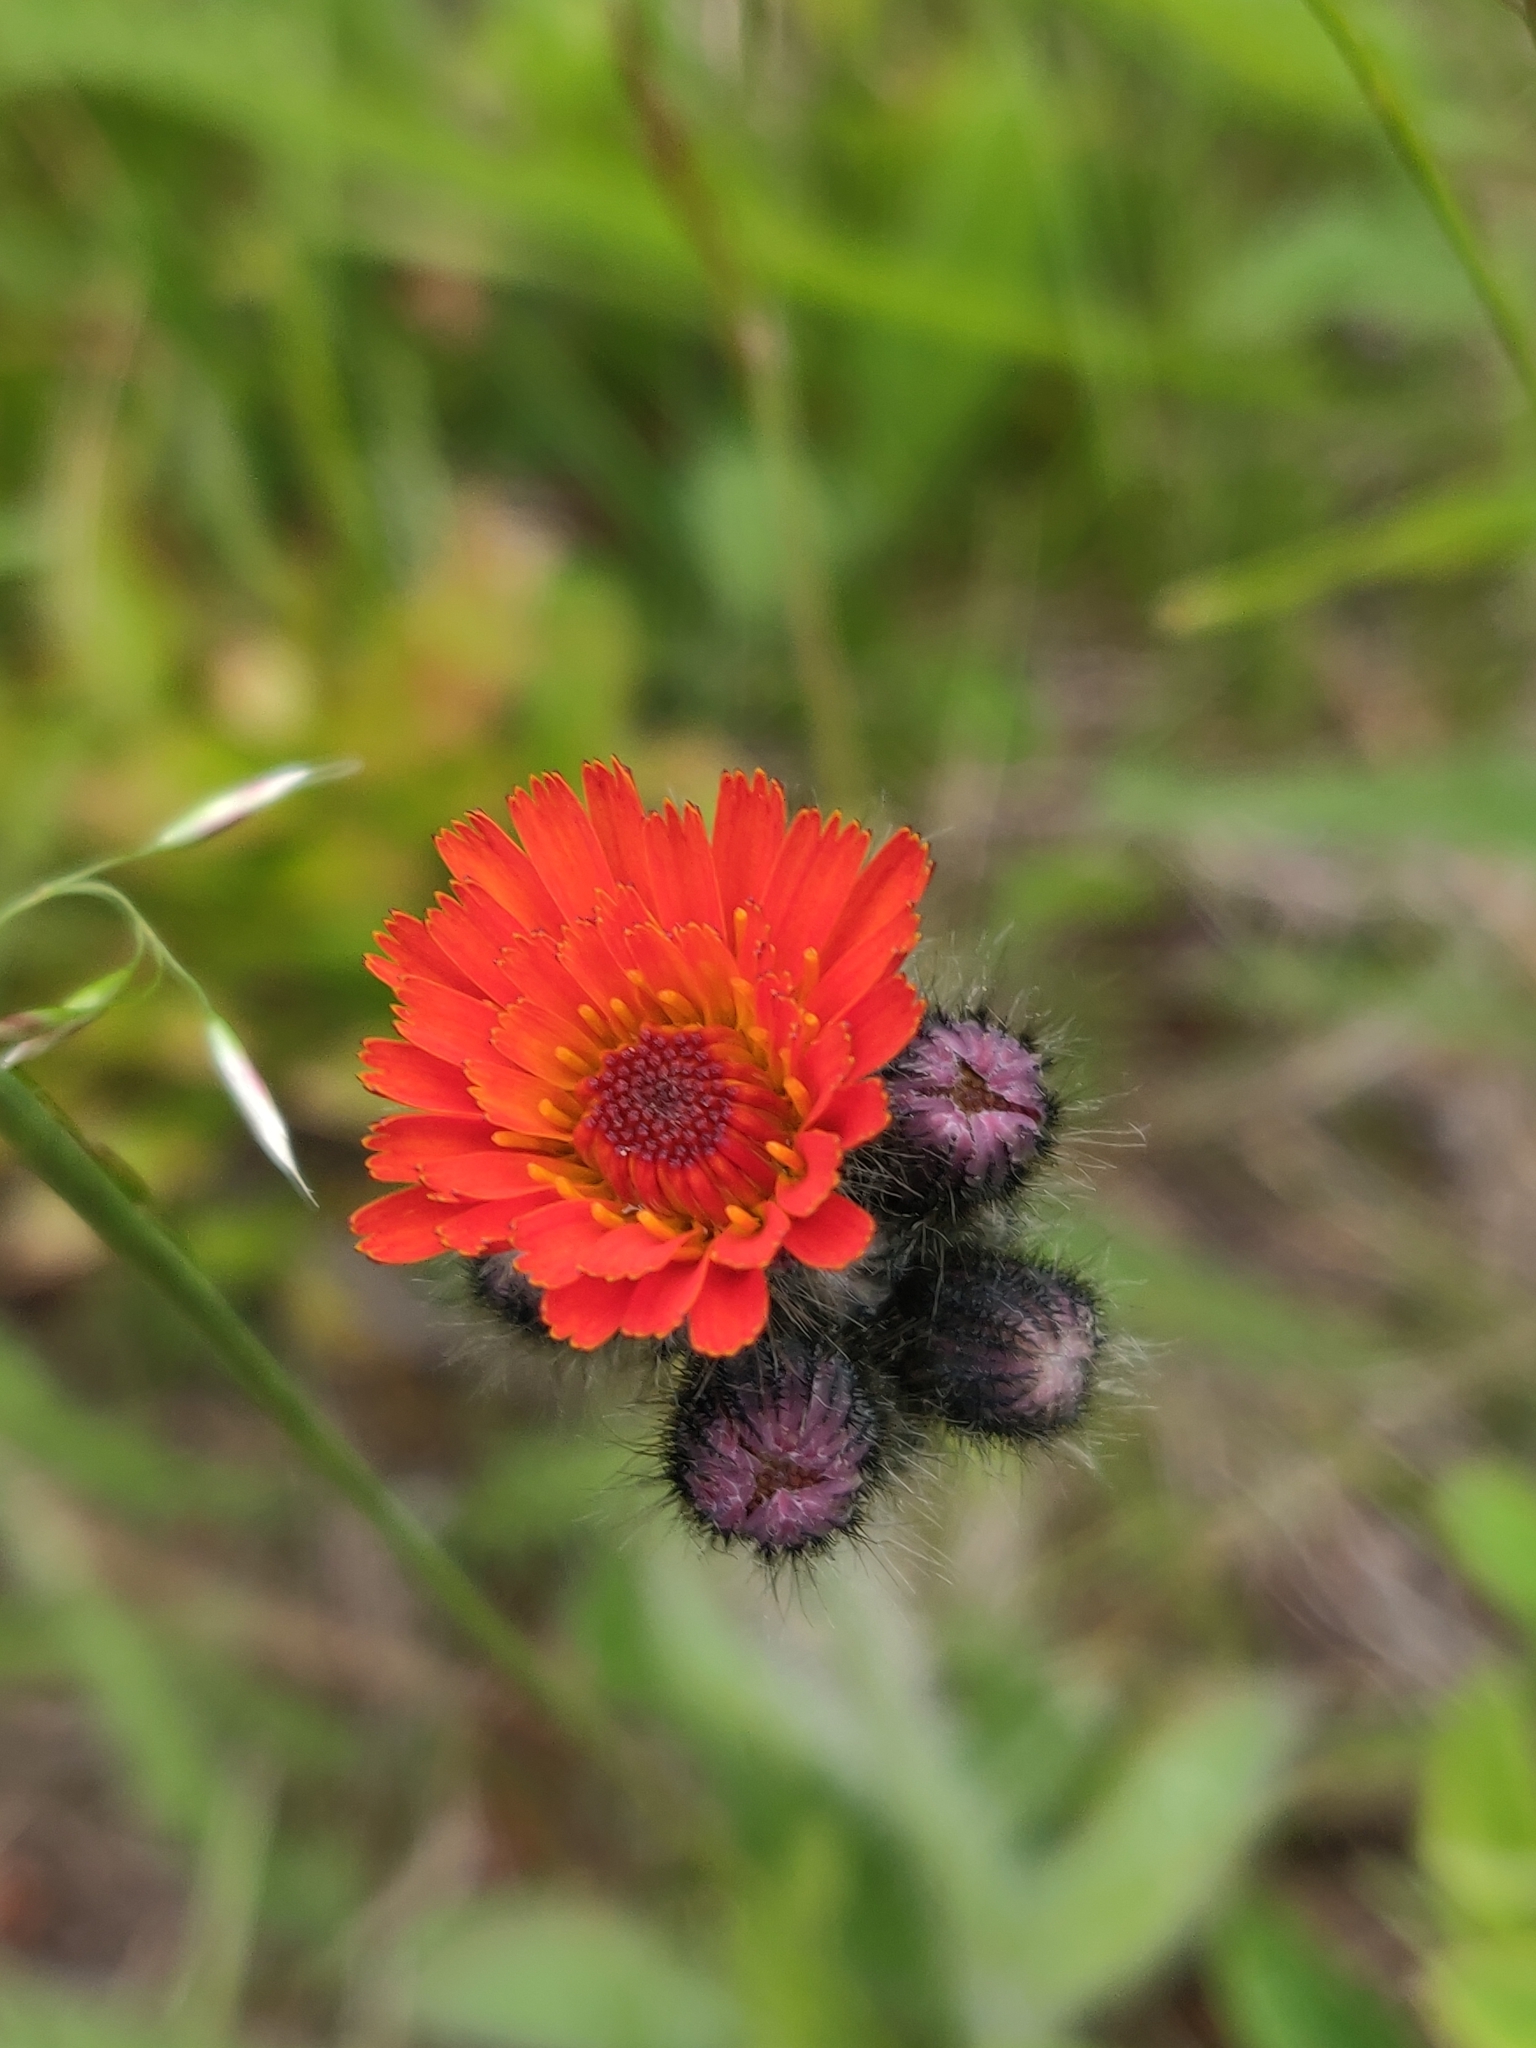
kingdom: Plantae
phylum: Tracheophyta
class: Magnoliopsida
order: Asterales
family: Asteraceae
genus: Pilosella
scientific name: Pilosella aurantiaca
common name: Fox-and-cubs
